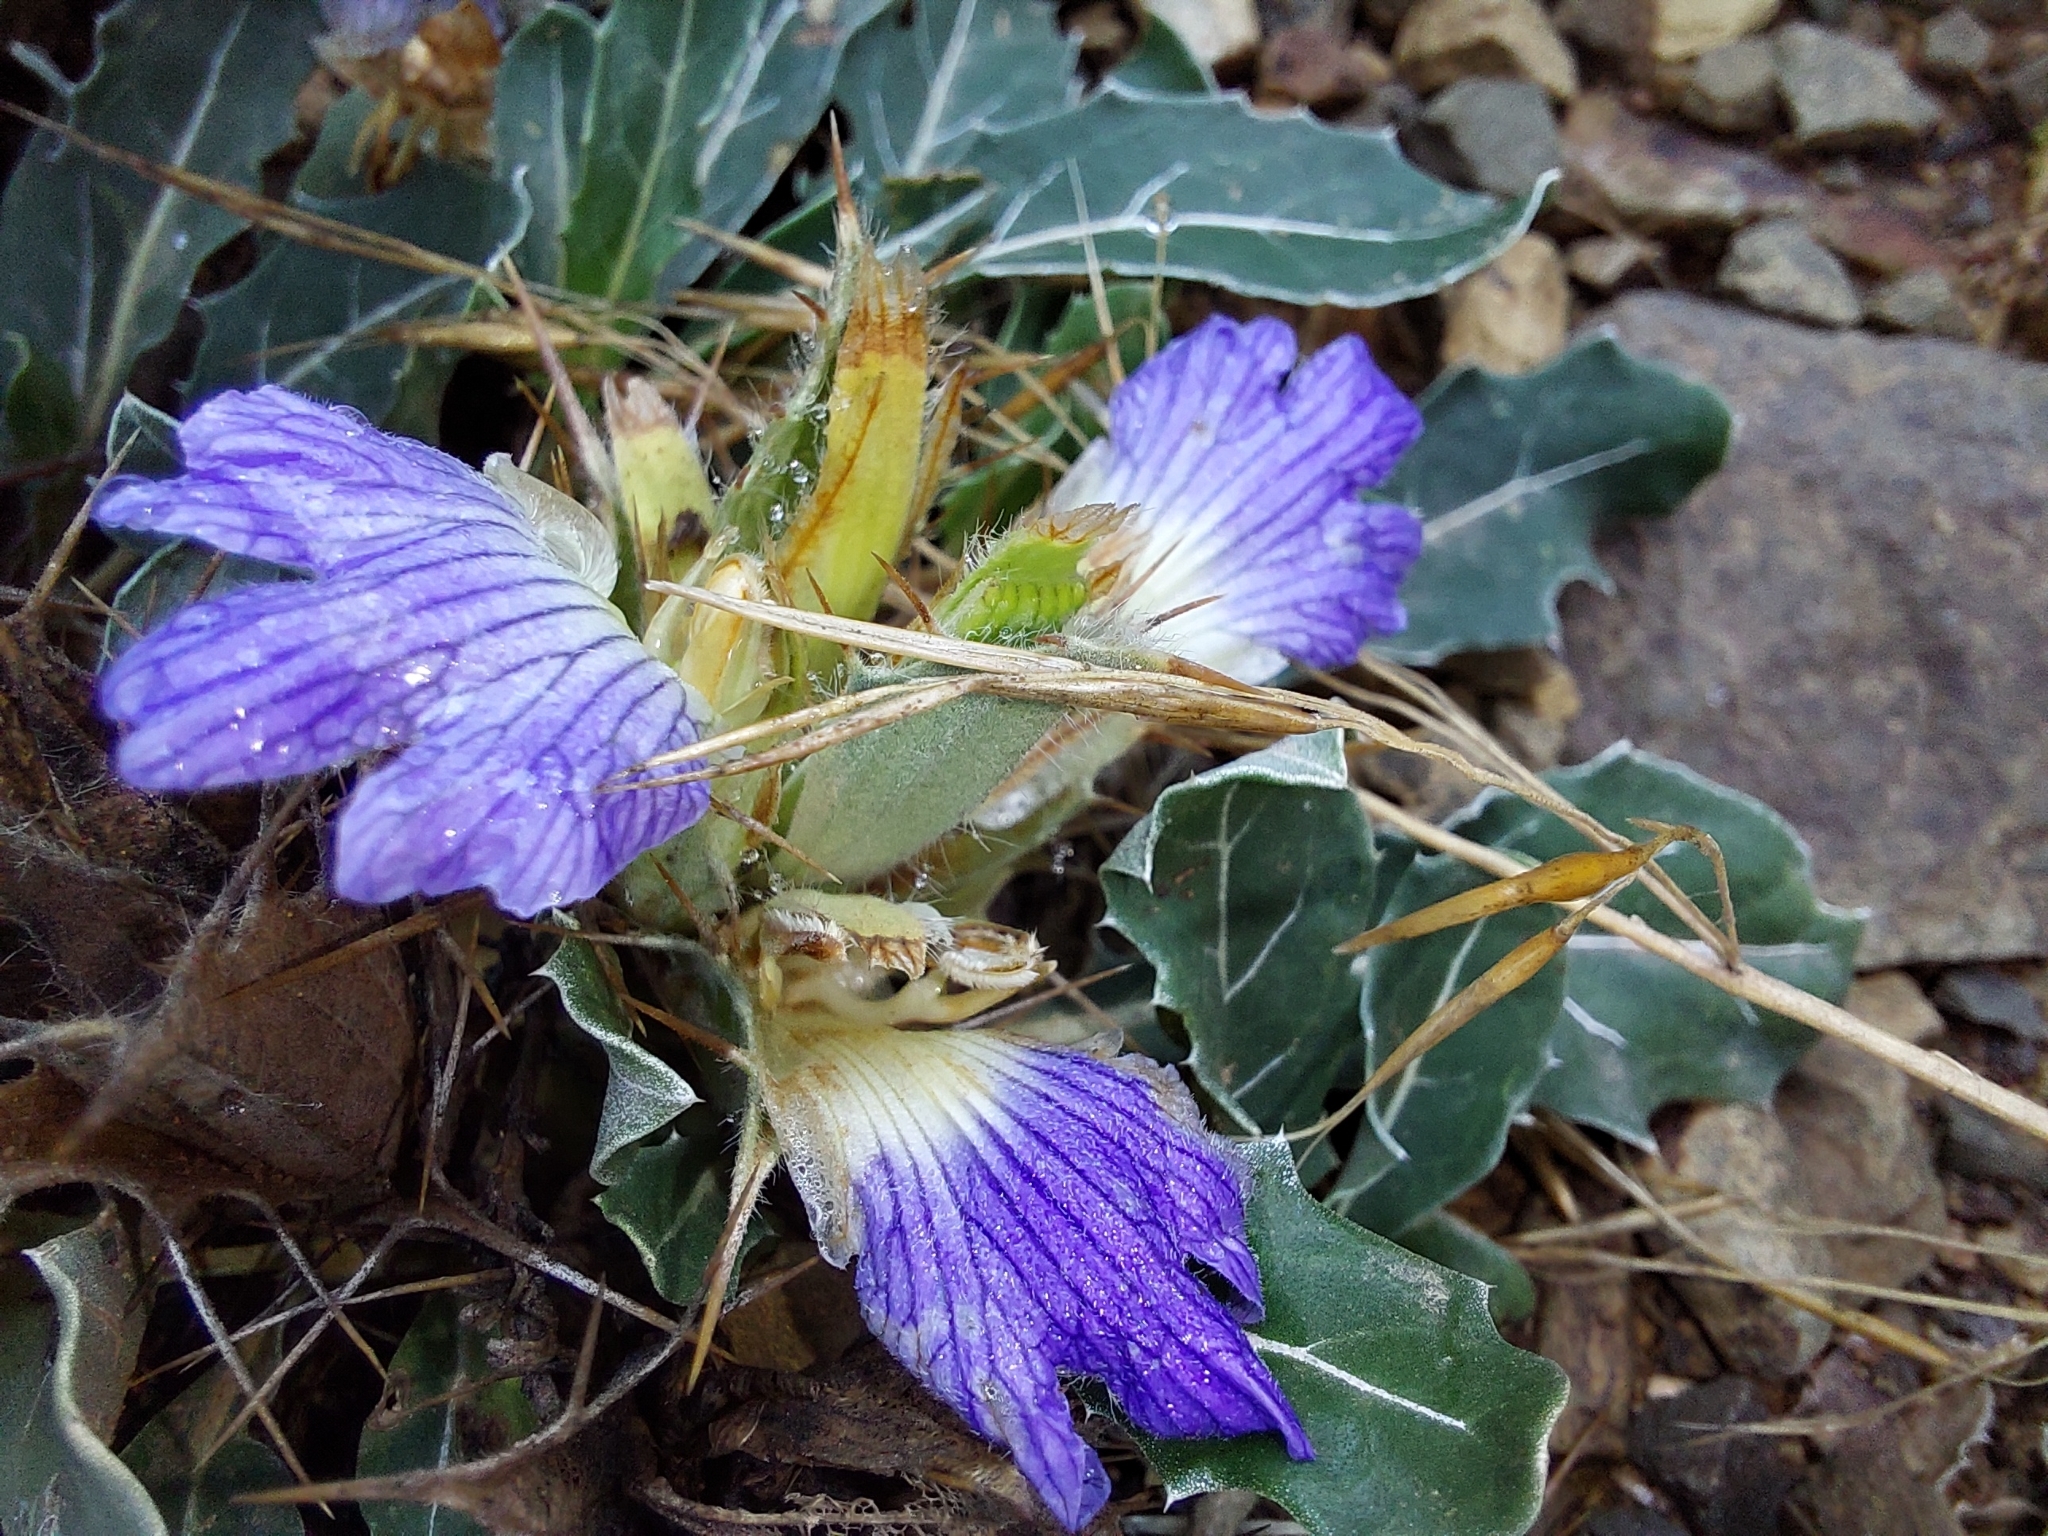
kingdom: Plantae
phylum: Tracheophyta
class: Magnoliopsida
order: Lamiales
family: Acanthaceae
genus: Blepharis
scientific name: Blepharis mitrata
